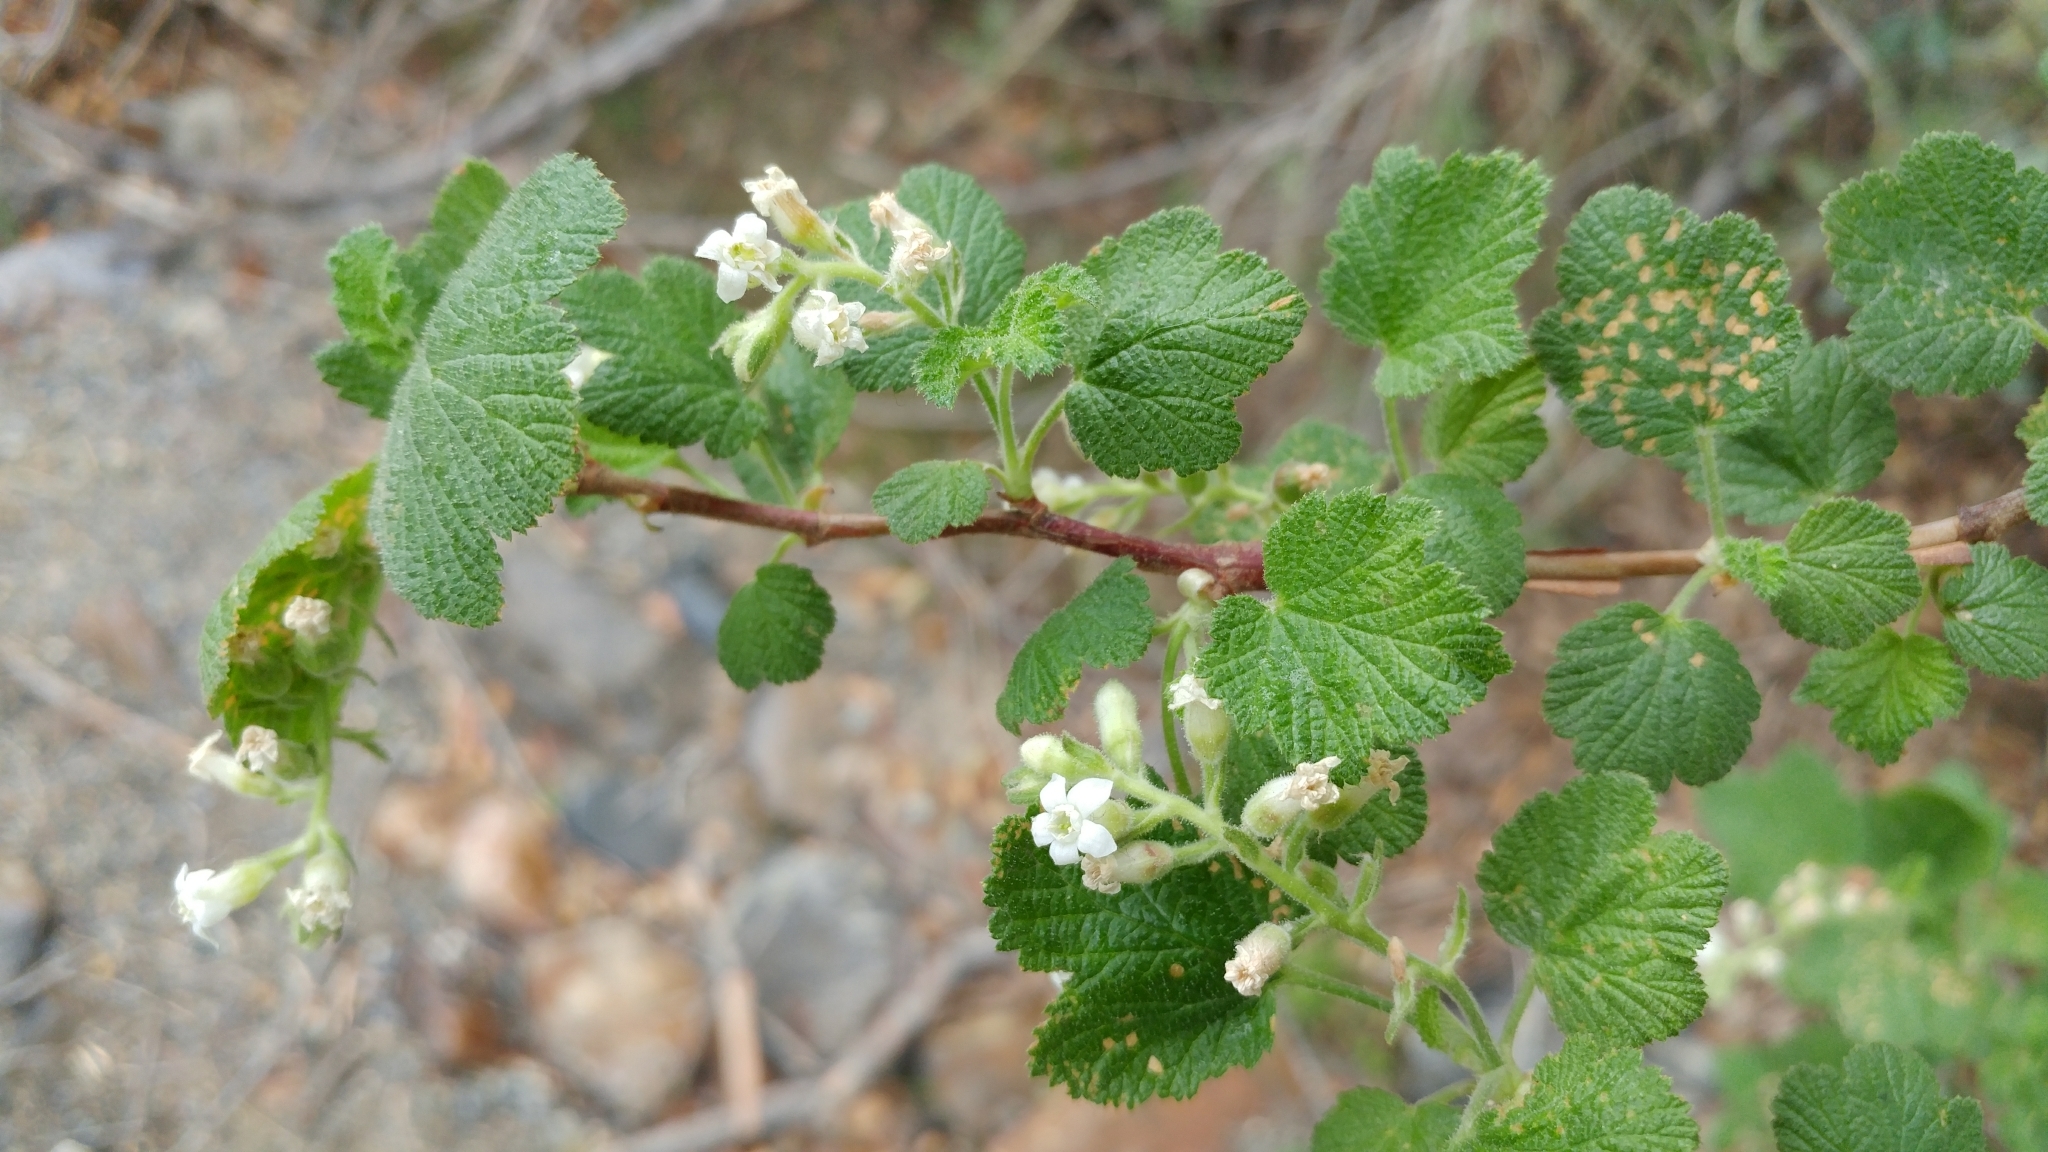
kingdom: Plantae
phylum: Tracheophyta
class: Magnoliopsida
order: Saxifragales
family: Grossulariaceae
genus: Ribes
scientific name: Ribes indecorum
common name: White-flower currant
